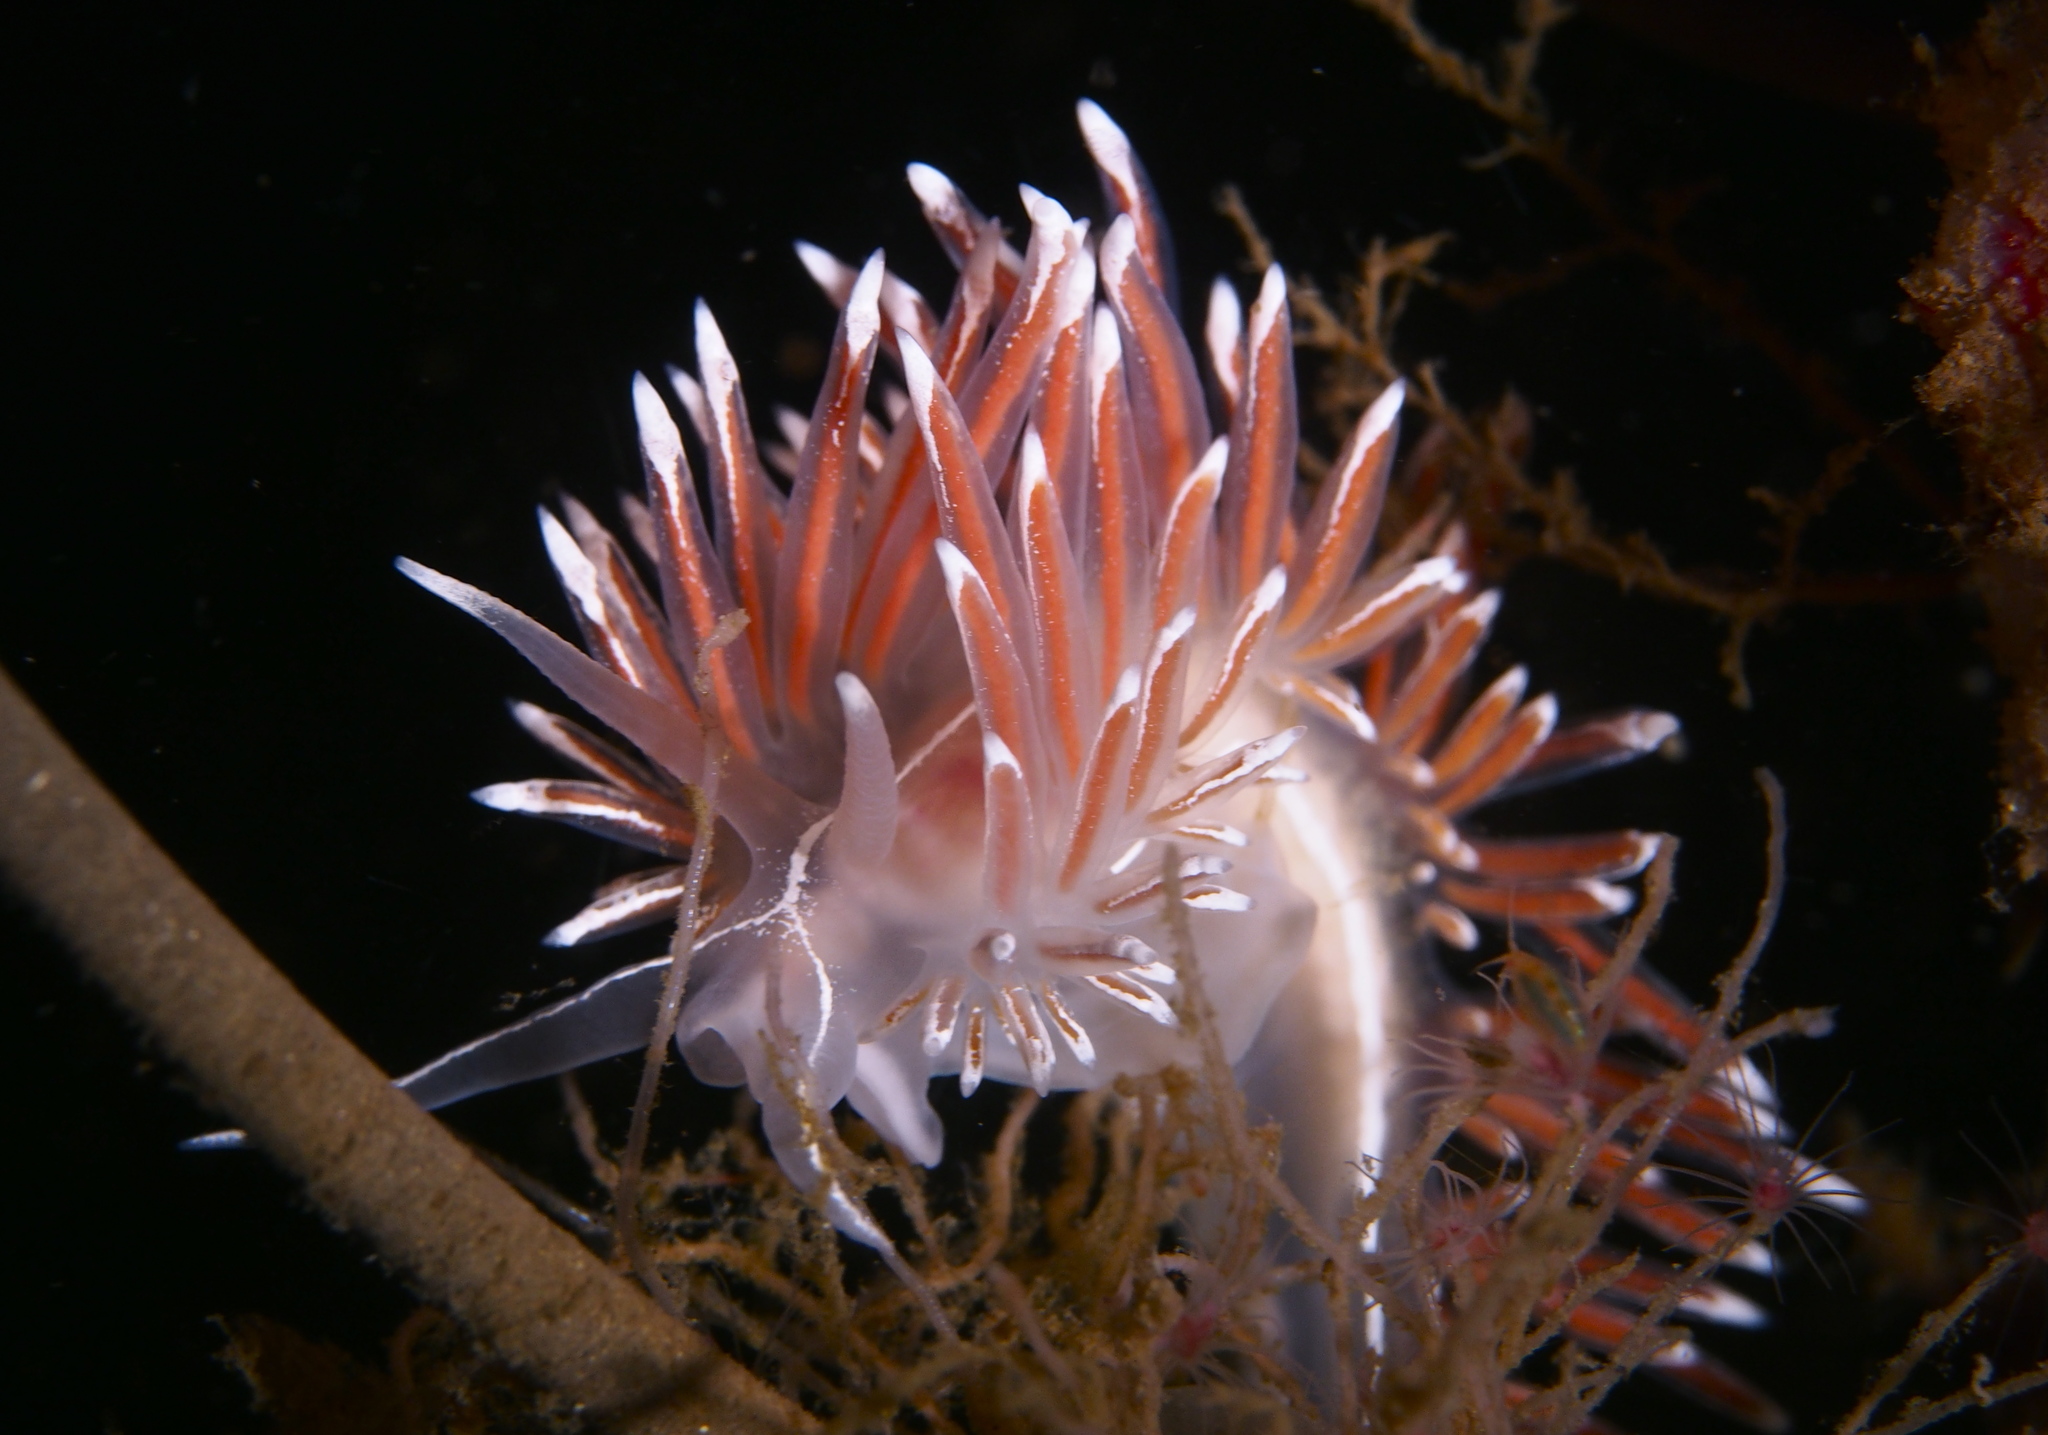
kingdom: Animalia
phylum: Mollusca
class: Gastropoda
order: Nudibranchia
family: Coryphellidae
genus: Coryphella
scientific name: Coryphella lineata
